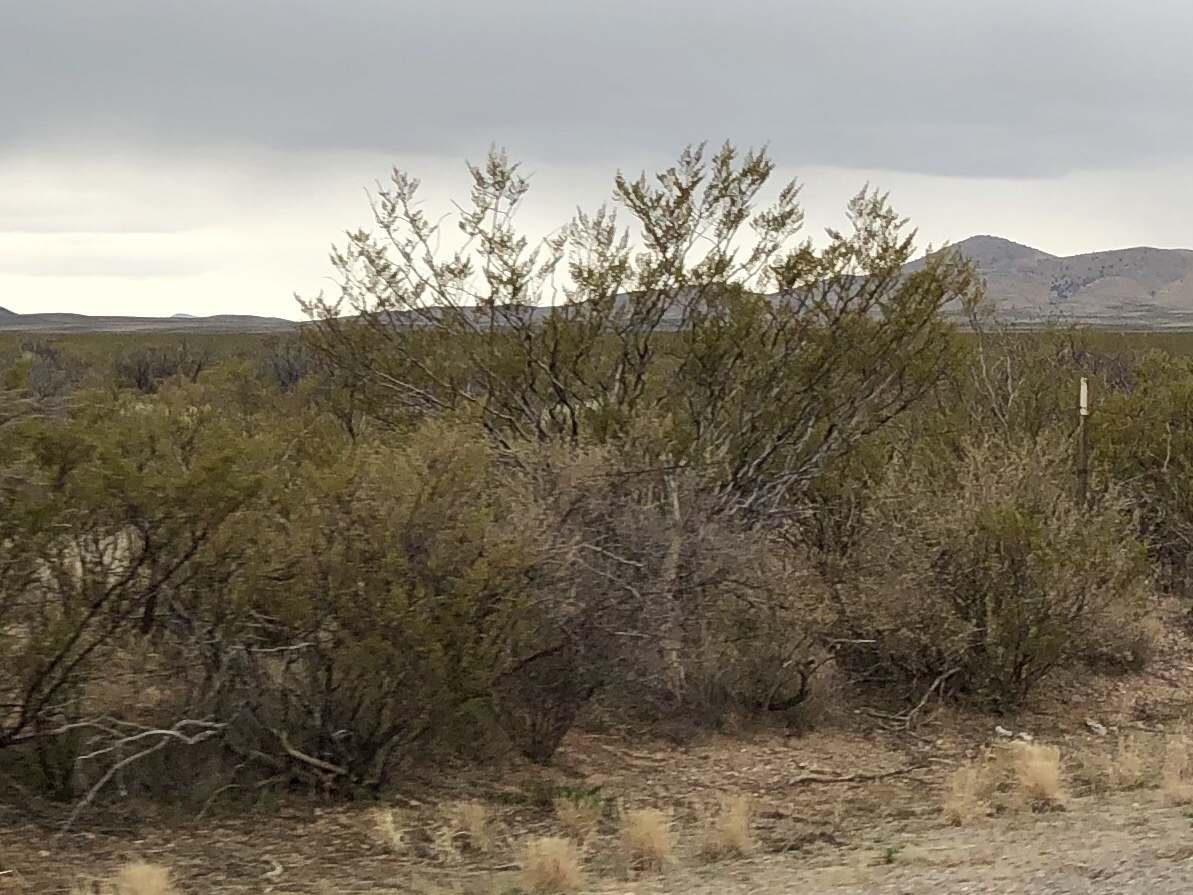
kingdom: Plantae
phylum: Tracheophyta
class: Magnoliopsida
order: Zygophyllales
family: Zygophyllaceae
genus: Larrea
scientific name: Larrea tridentata
